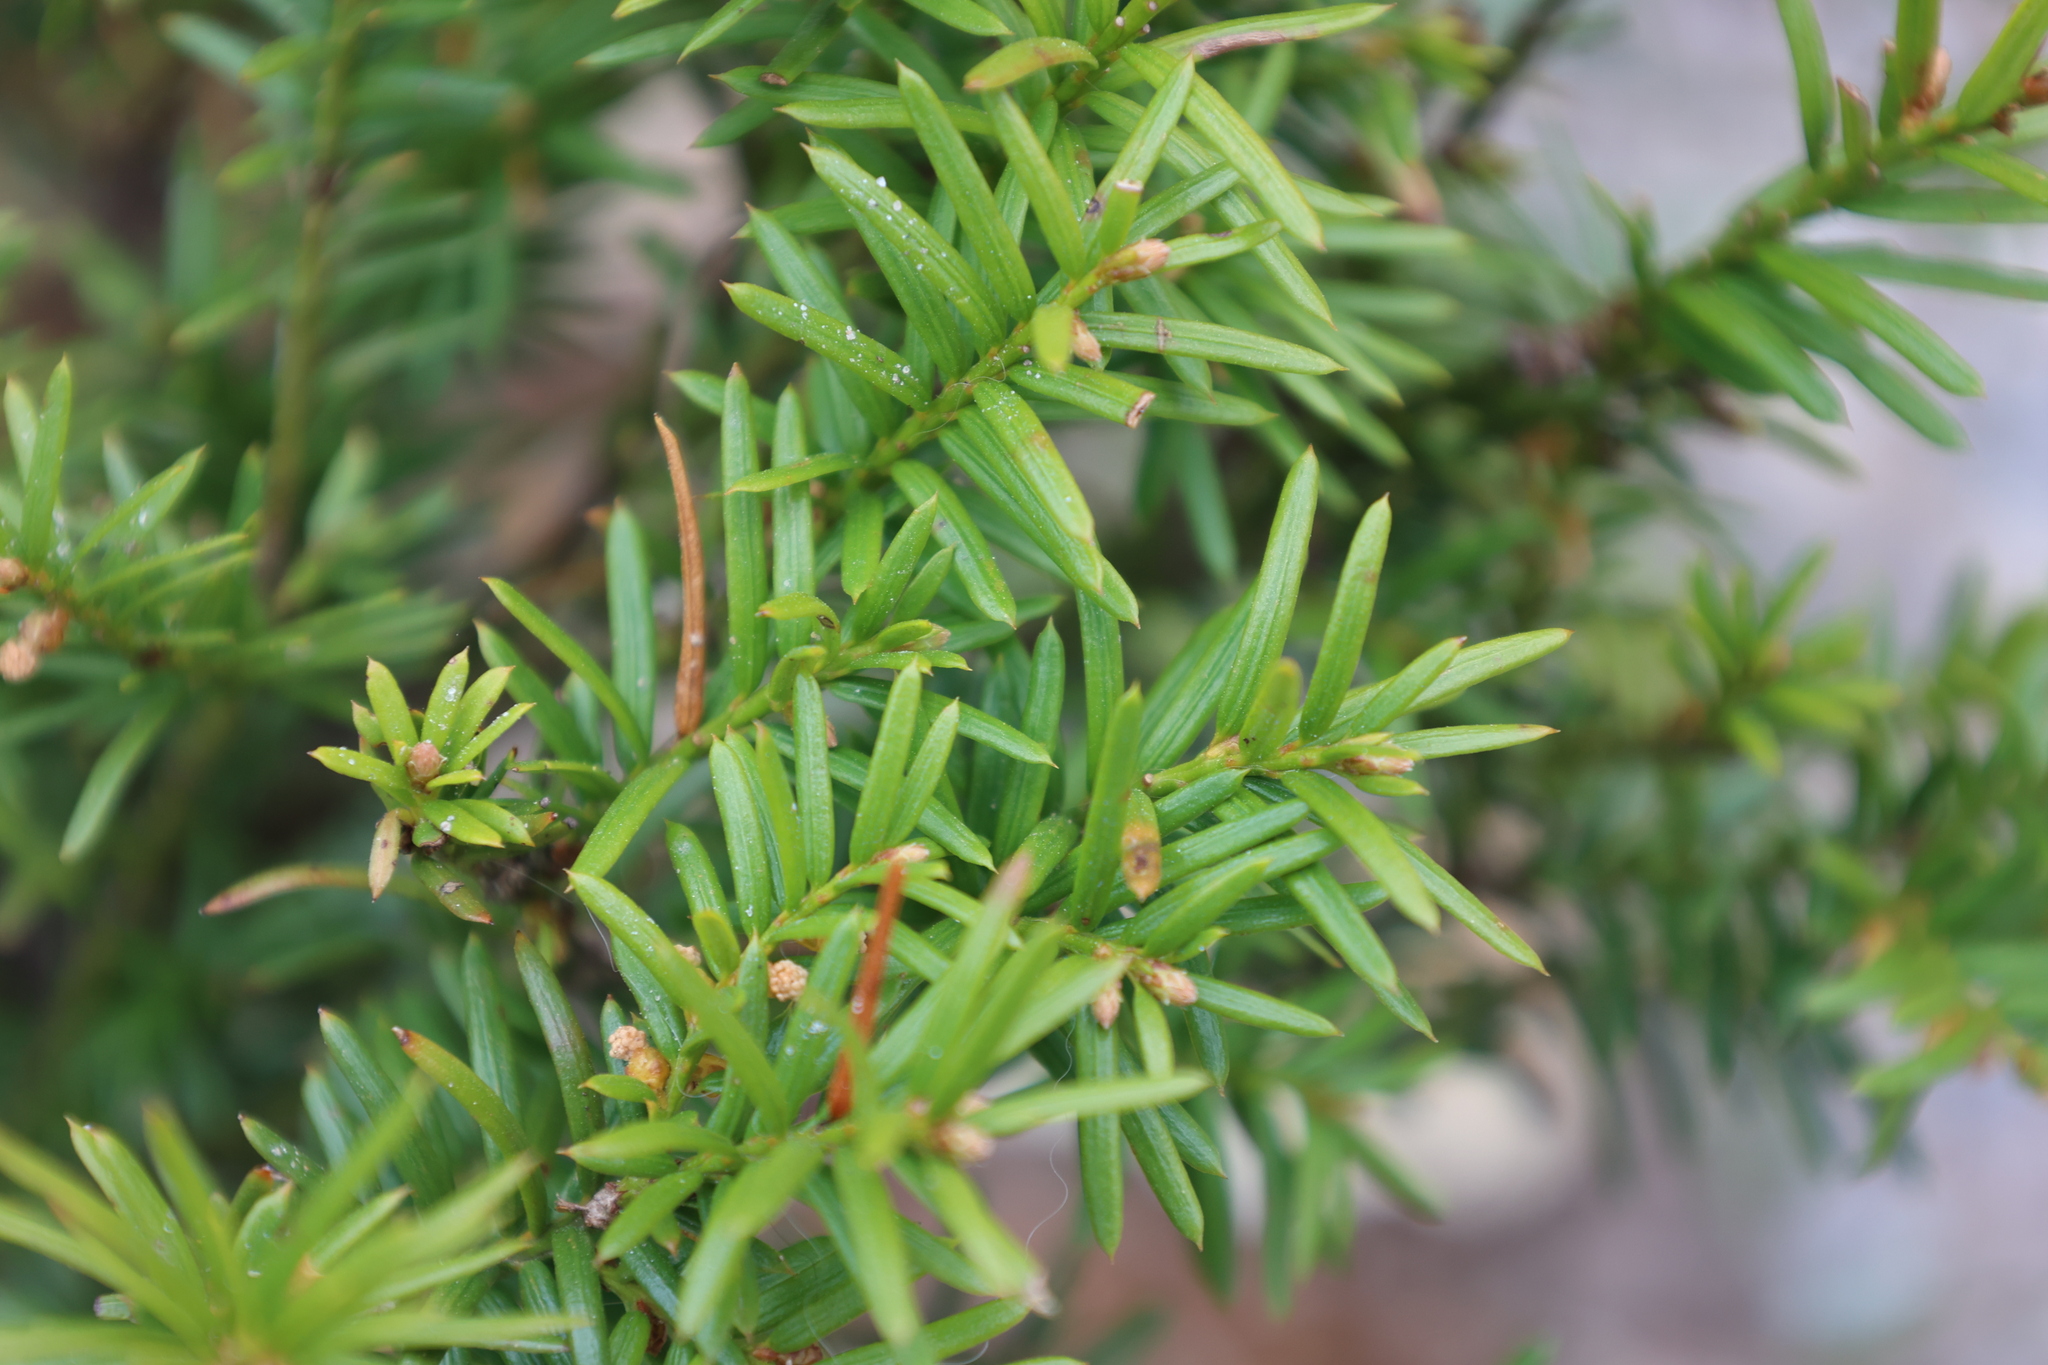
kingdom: Plantae
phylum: Tracheophyta
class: Pinopsida
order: Pinales
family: Taxaceae
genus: Taxus
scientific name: Taxus canadensis
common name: American yew
